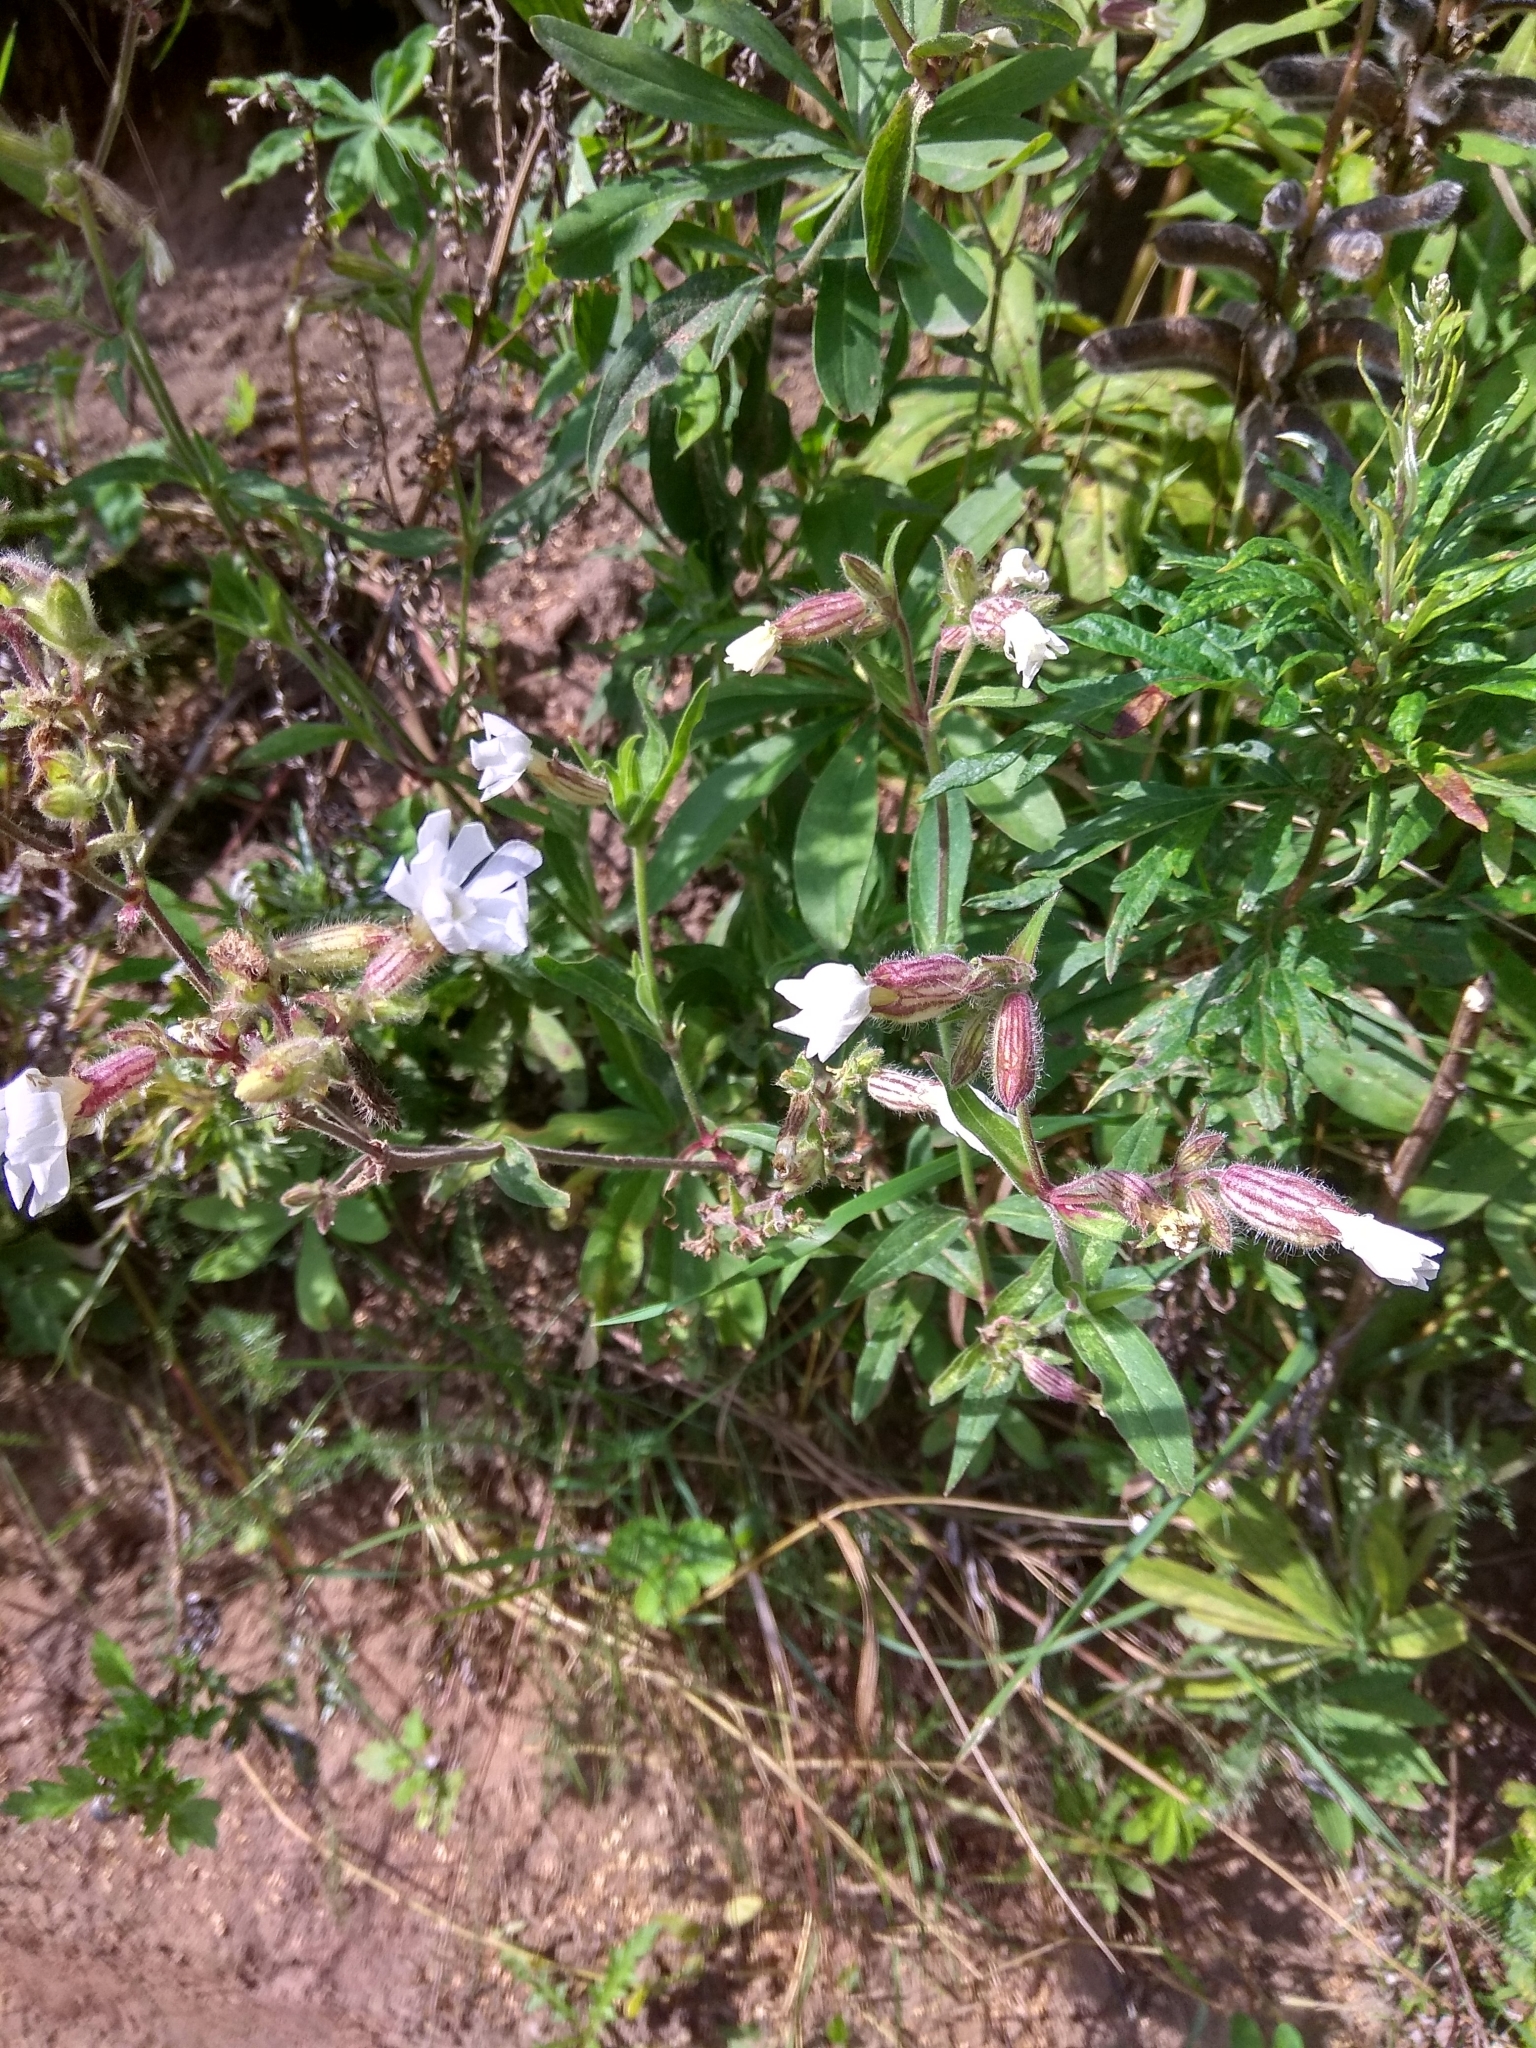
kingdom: Plantae
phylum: Tracheophyta
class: Magnoliopsida
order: Caryophyllales
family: Caryophyllaceae
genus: Silene
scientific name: Silene latifolia
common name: White campion
